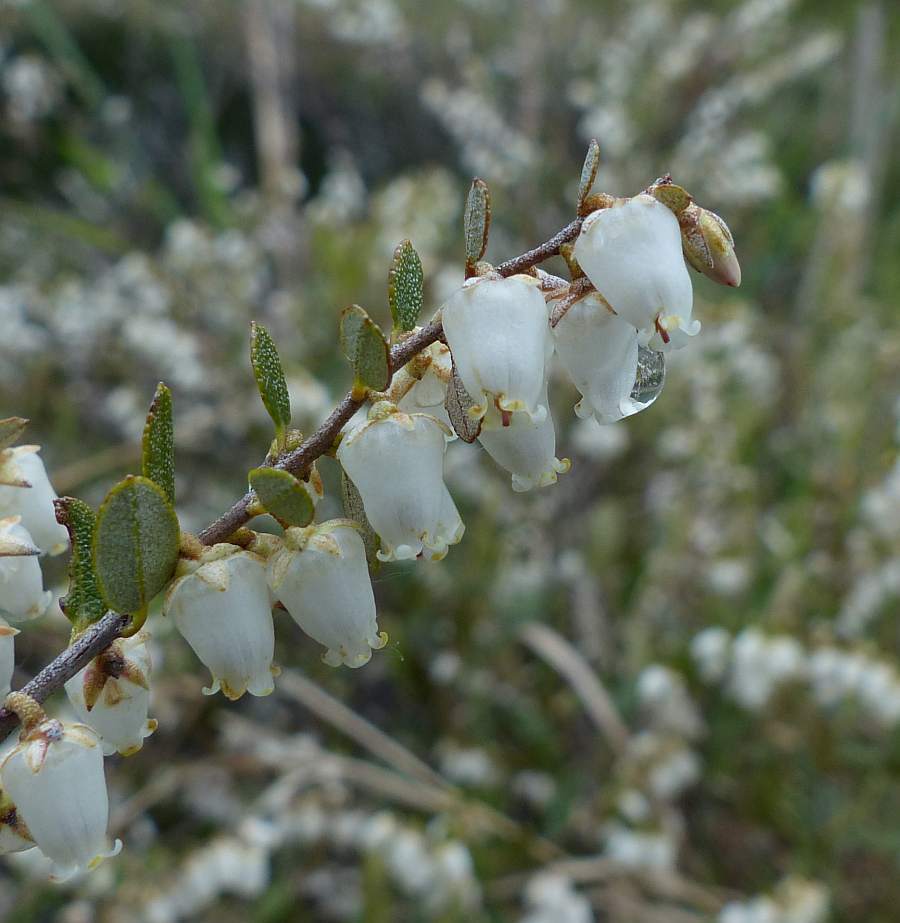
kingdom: Plantae
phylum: Tracheophyta
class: Magnoliopsida
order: Ericales
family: Ericaceae
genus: Chamaedaphne
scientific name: Chamaedaphne calyculata
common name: Leatherleaf
